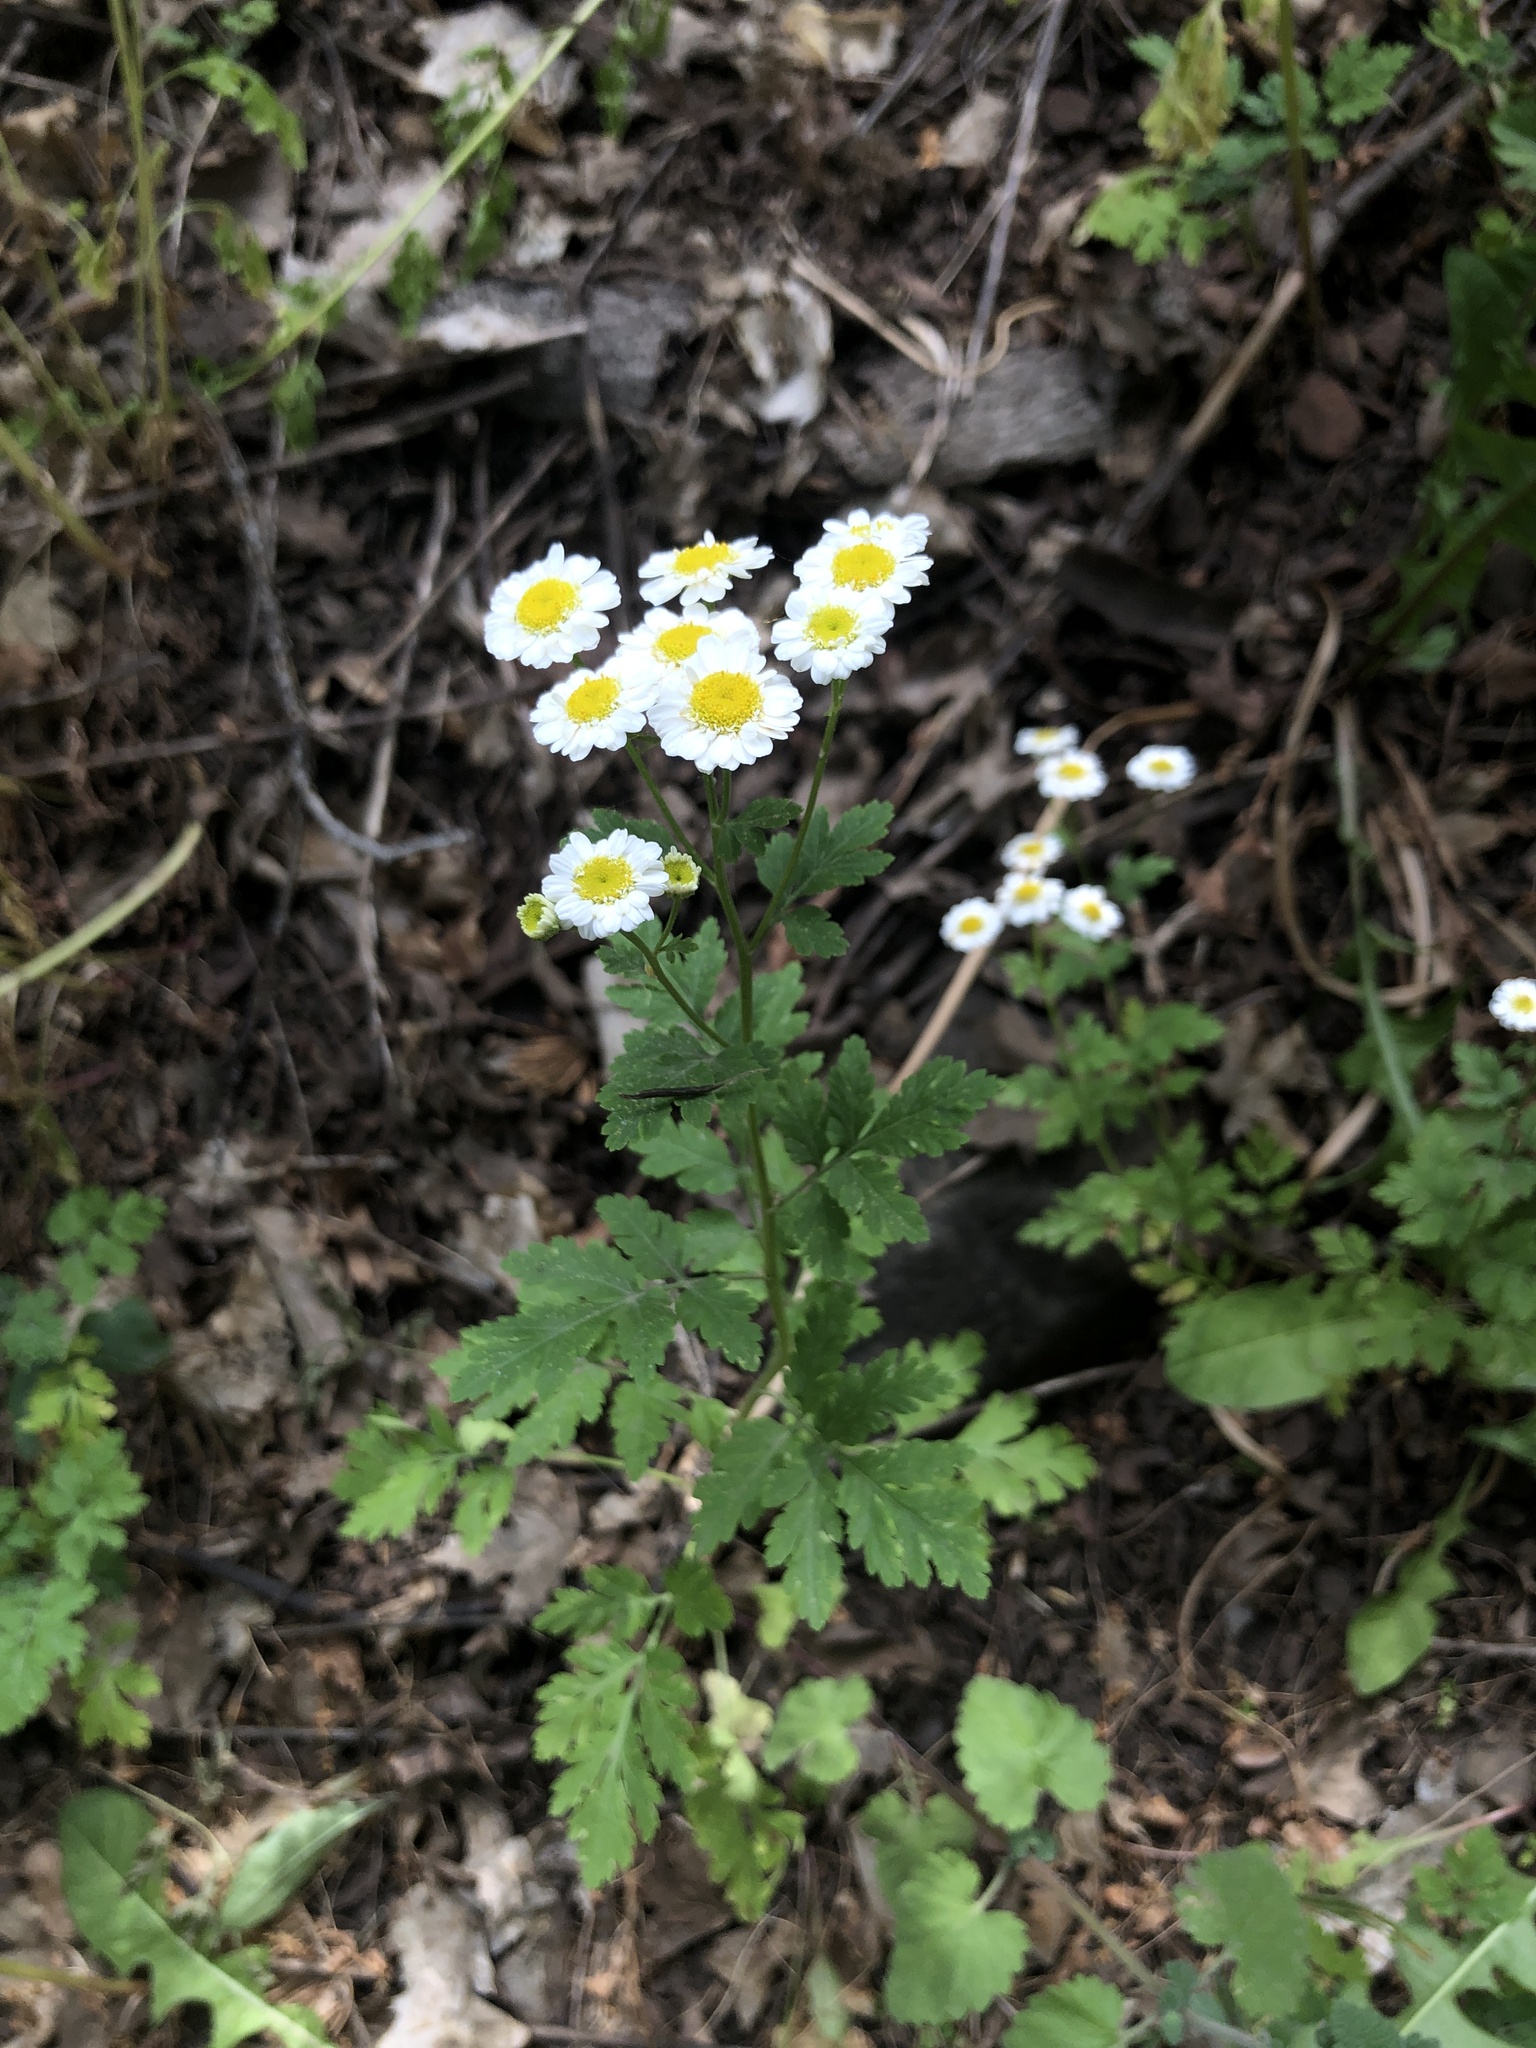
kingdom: Plantae
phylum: Tracheophyta
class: Magnoliopsida
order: Asterales
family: Asteraceae
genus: Tanacetum
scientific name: Tanacetum parthenium
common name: Feverfew
